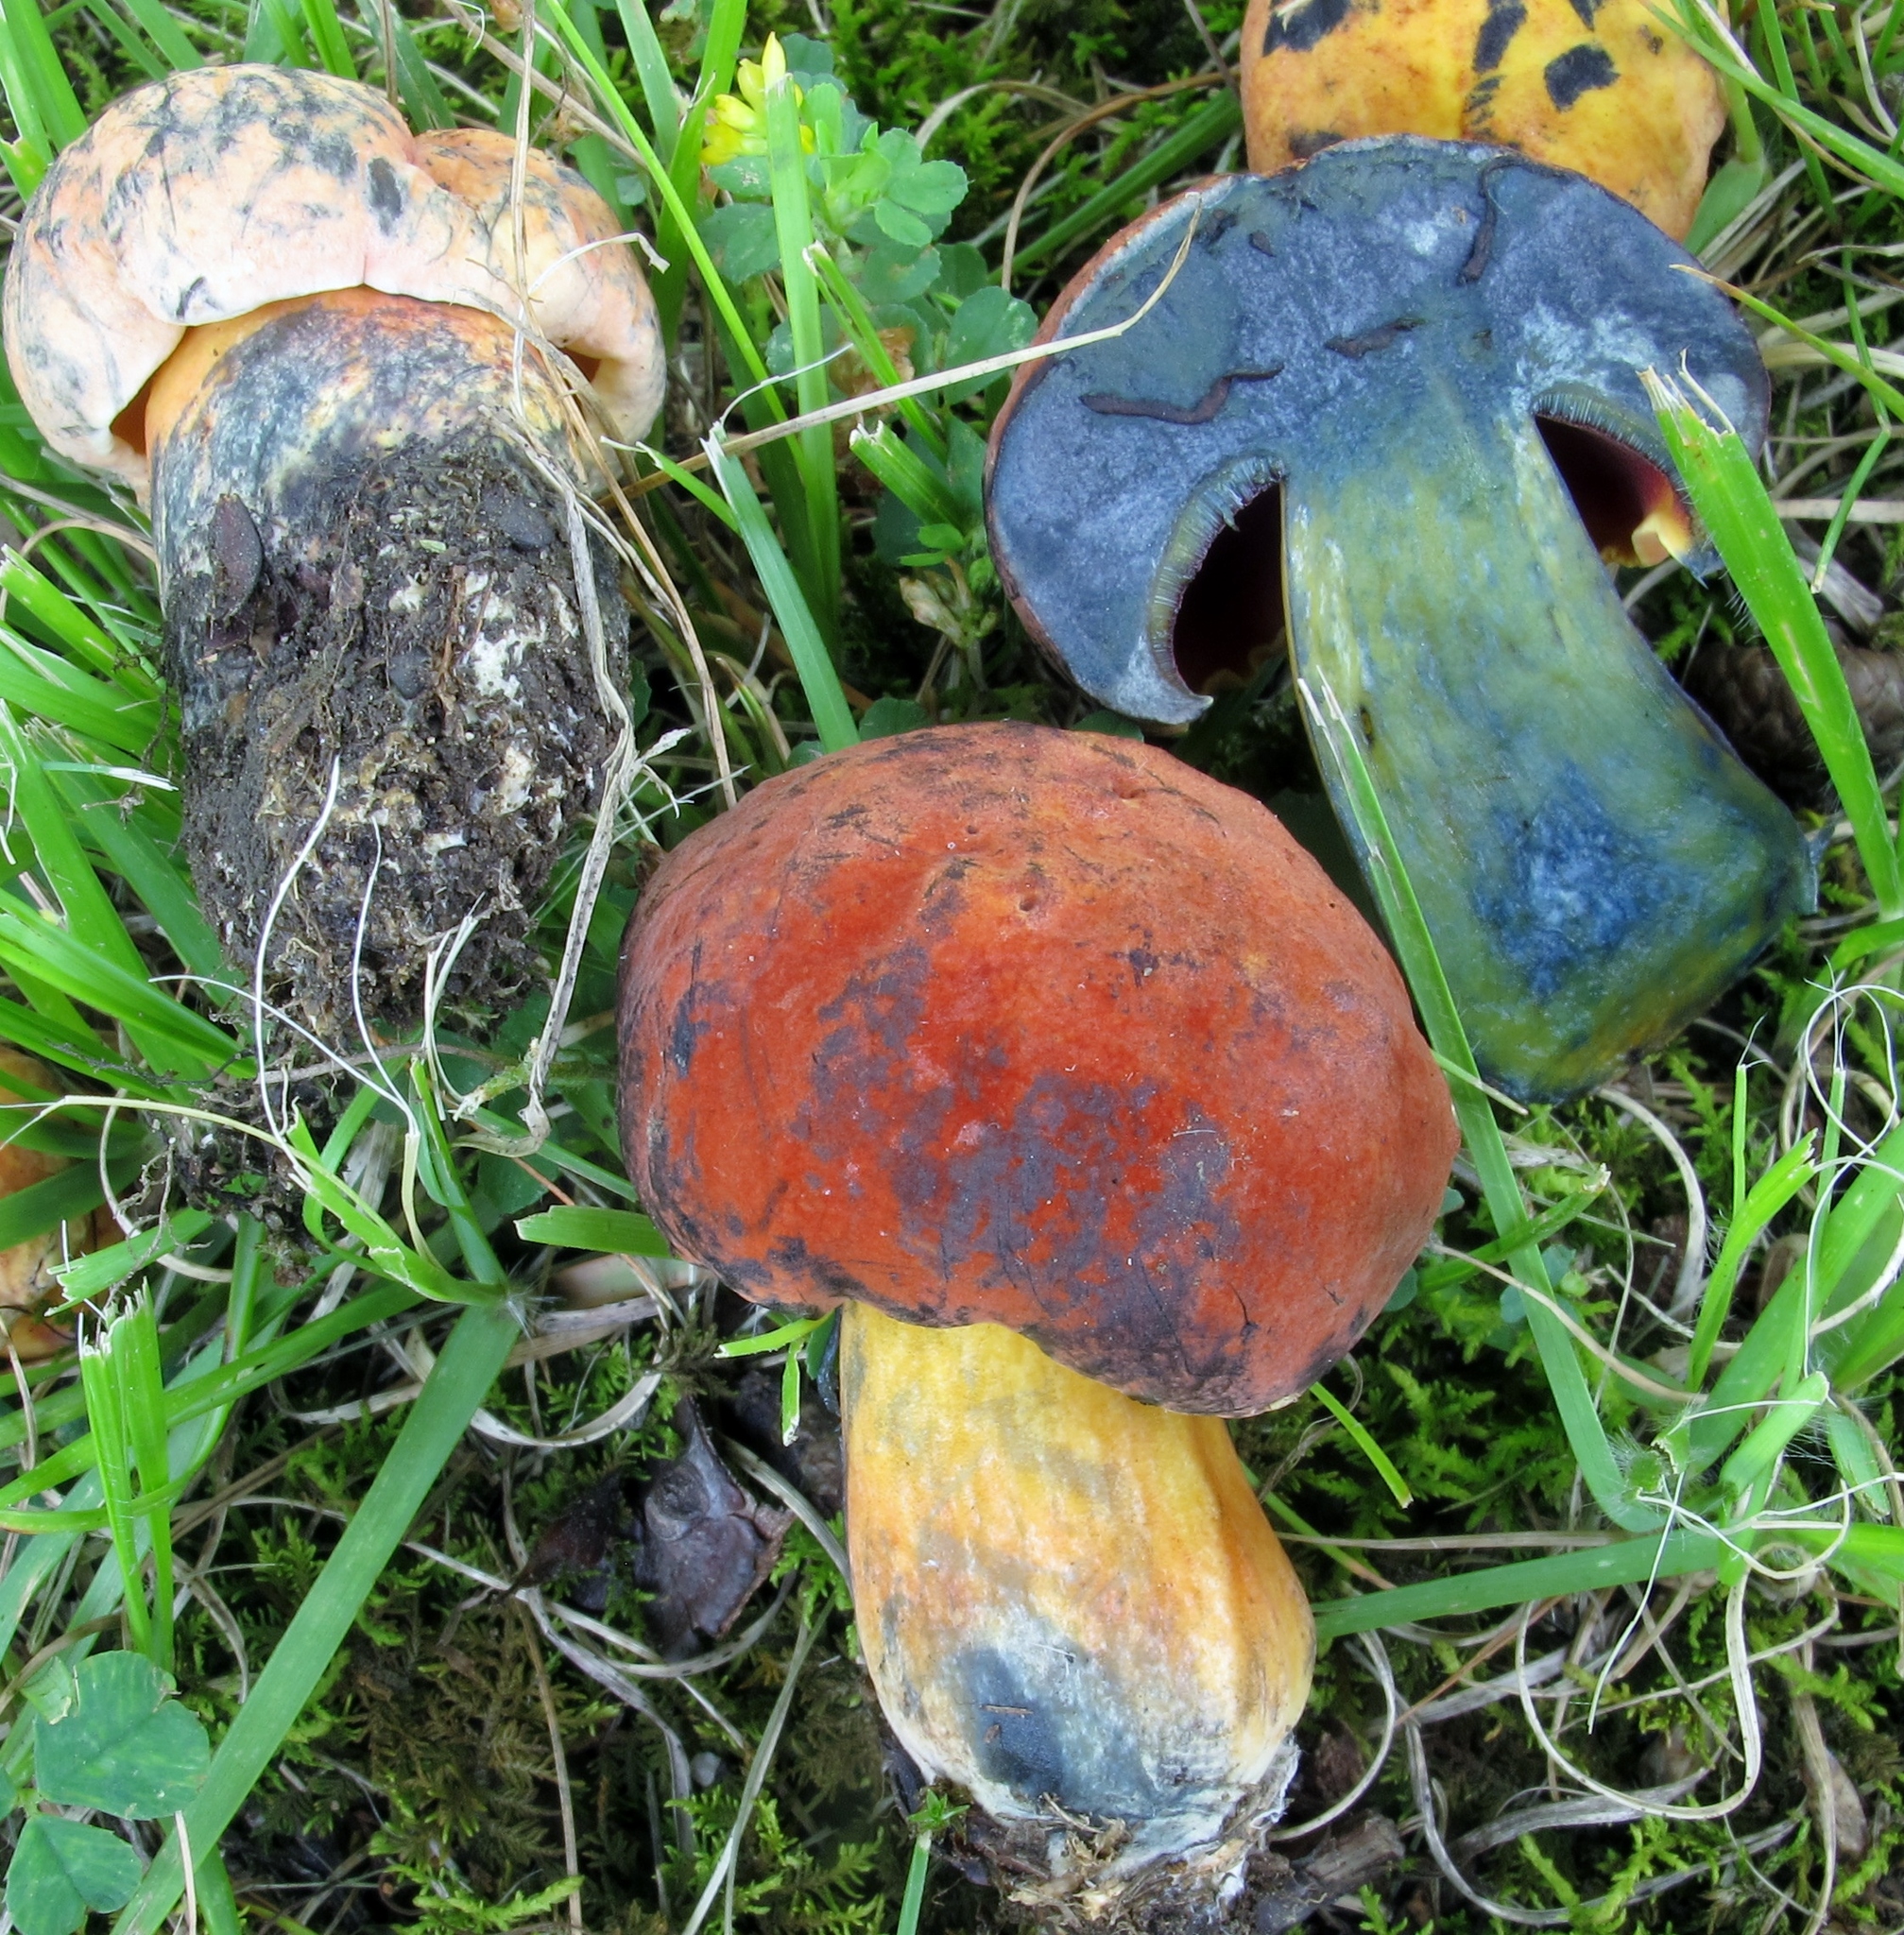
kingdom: Fungi
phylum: Basidiomycota
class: Agaricomycetes
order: Boletales
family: Boletaceae
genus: Boletus
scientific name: Boletus subvelutipes
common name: Red-mouth bolete
